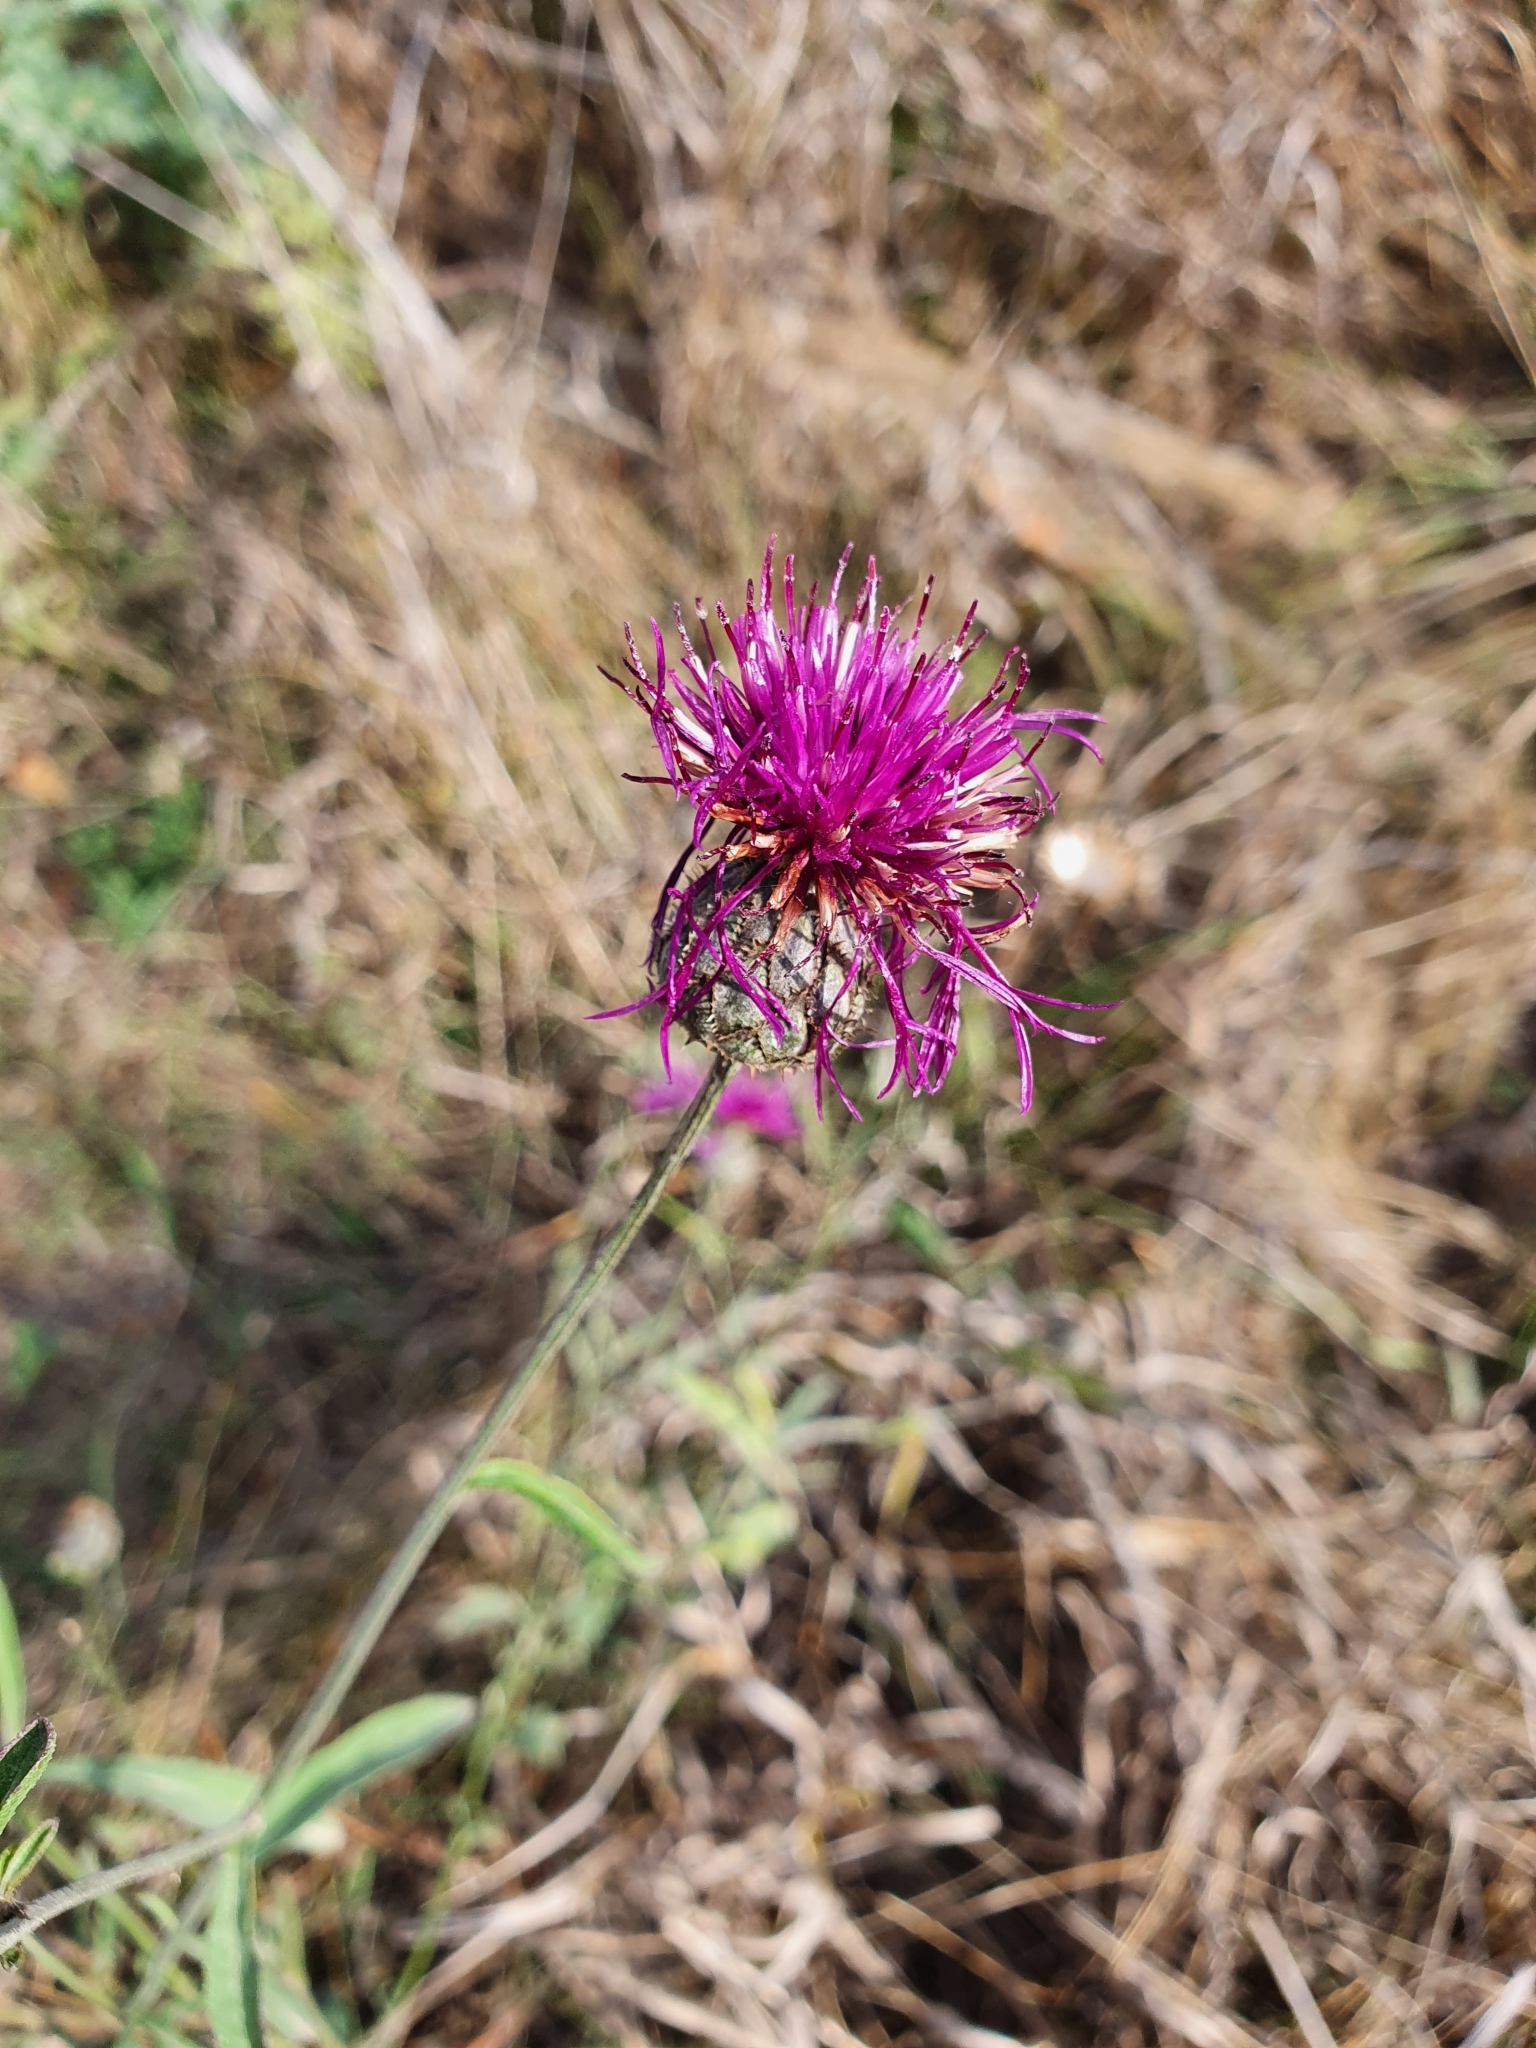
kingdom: Plantae
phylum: Tracheophyta
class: Magnoliopsida
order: Asterales
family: Asteraceae
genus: Centaurea
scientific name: Centaurea scabiosa
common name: Greater knapweed
